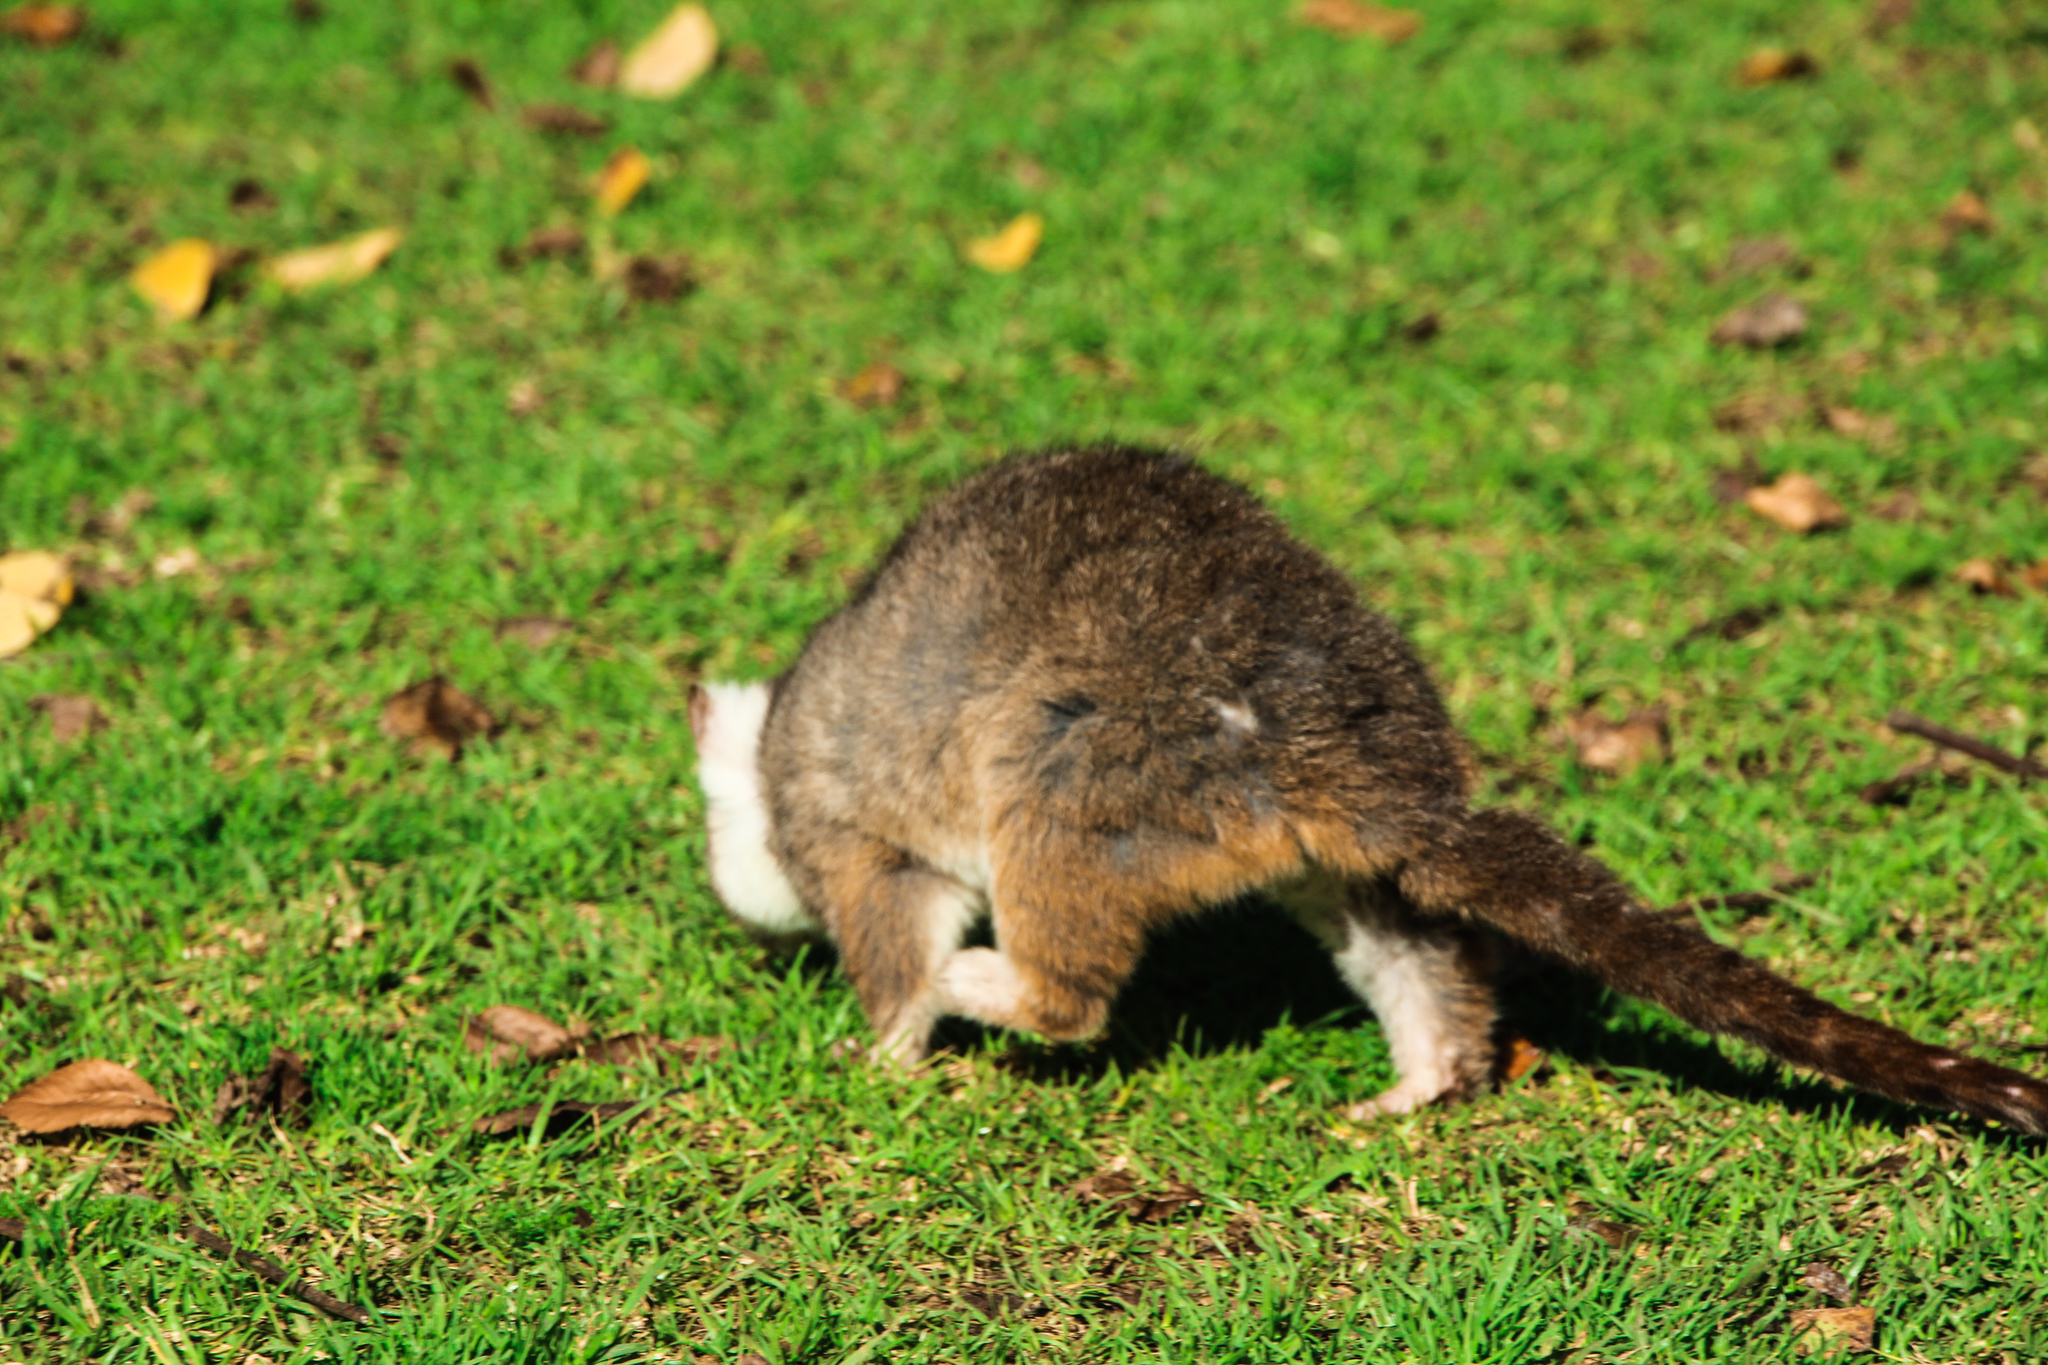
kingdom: Animalia
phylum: Chordata
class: Mammalia
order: Diprotodontia
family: Pseudocheiridae
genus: Pseudocheirus
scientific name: Pseudocheirus peregrinus
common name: Common ringtail possum
